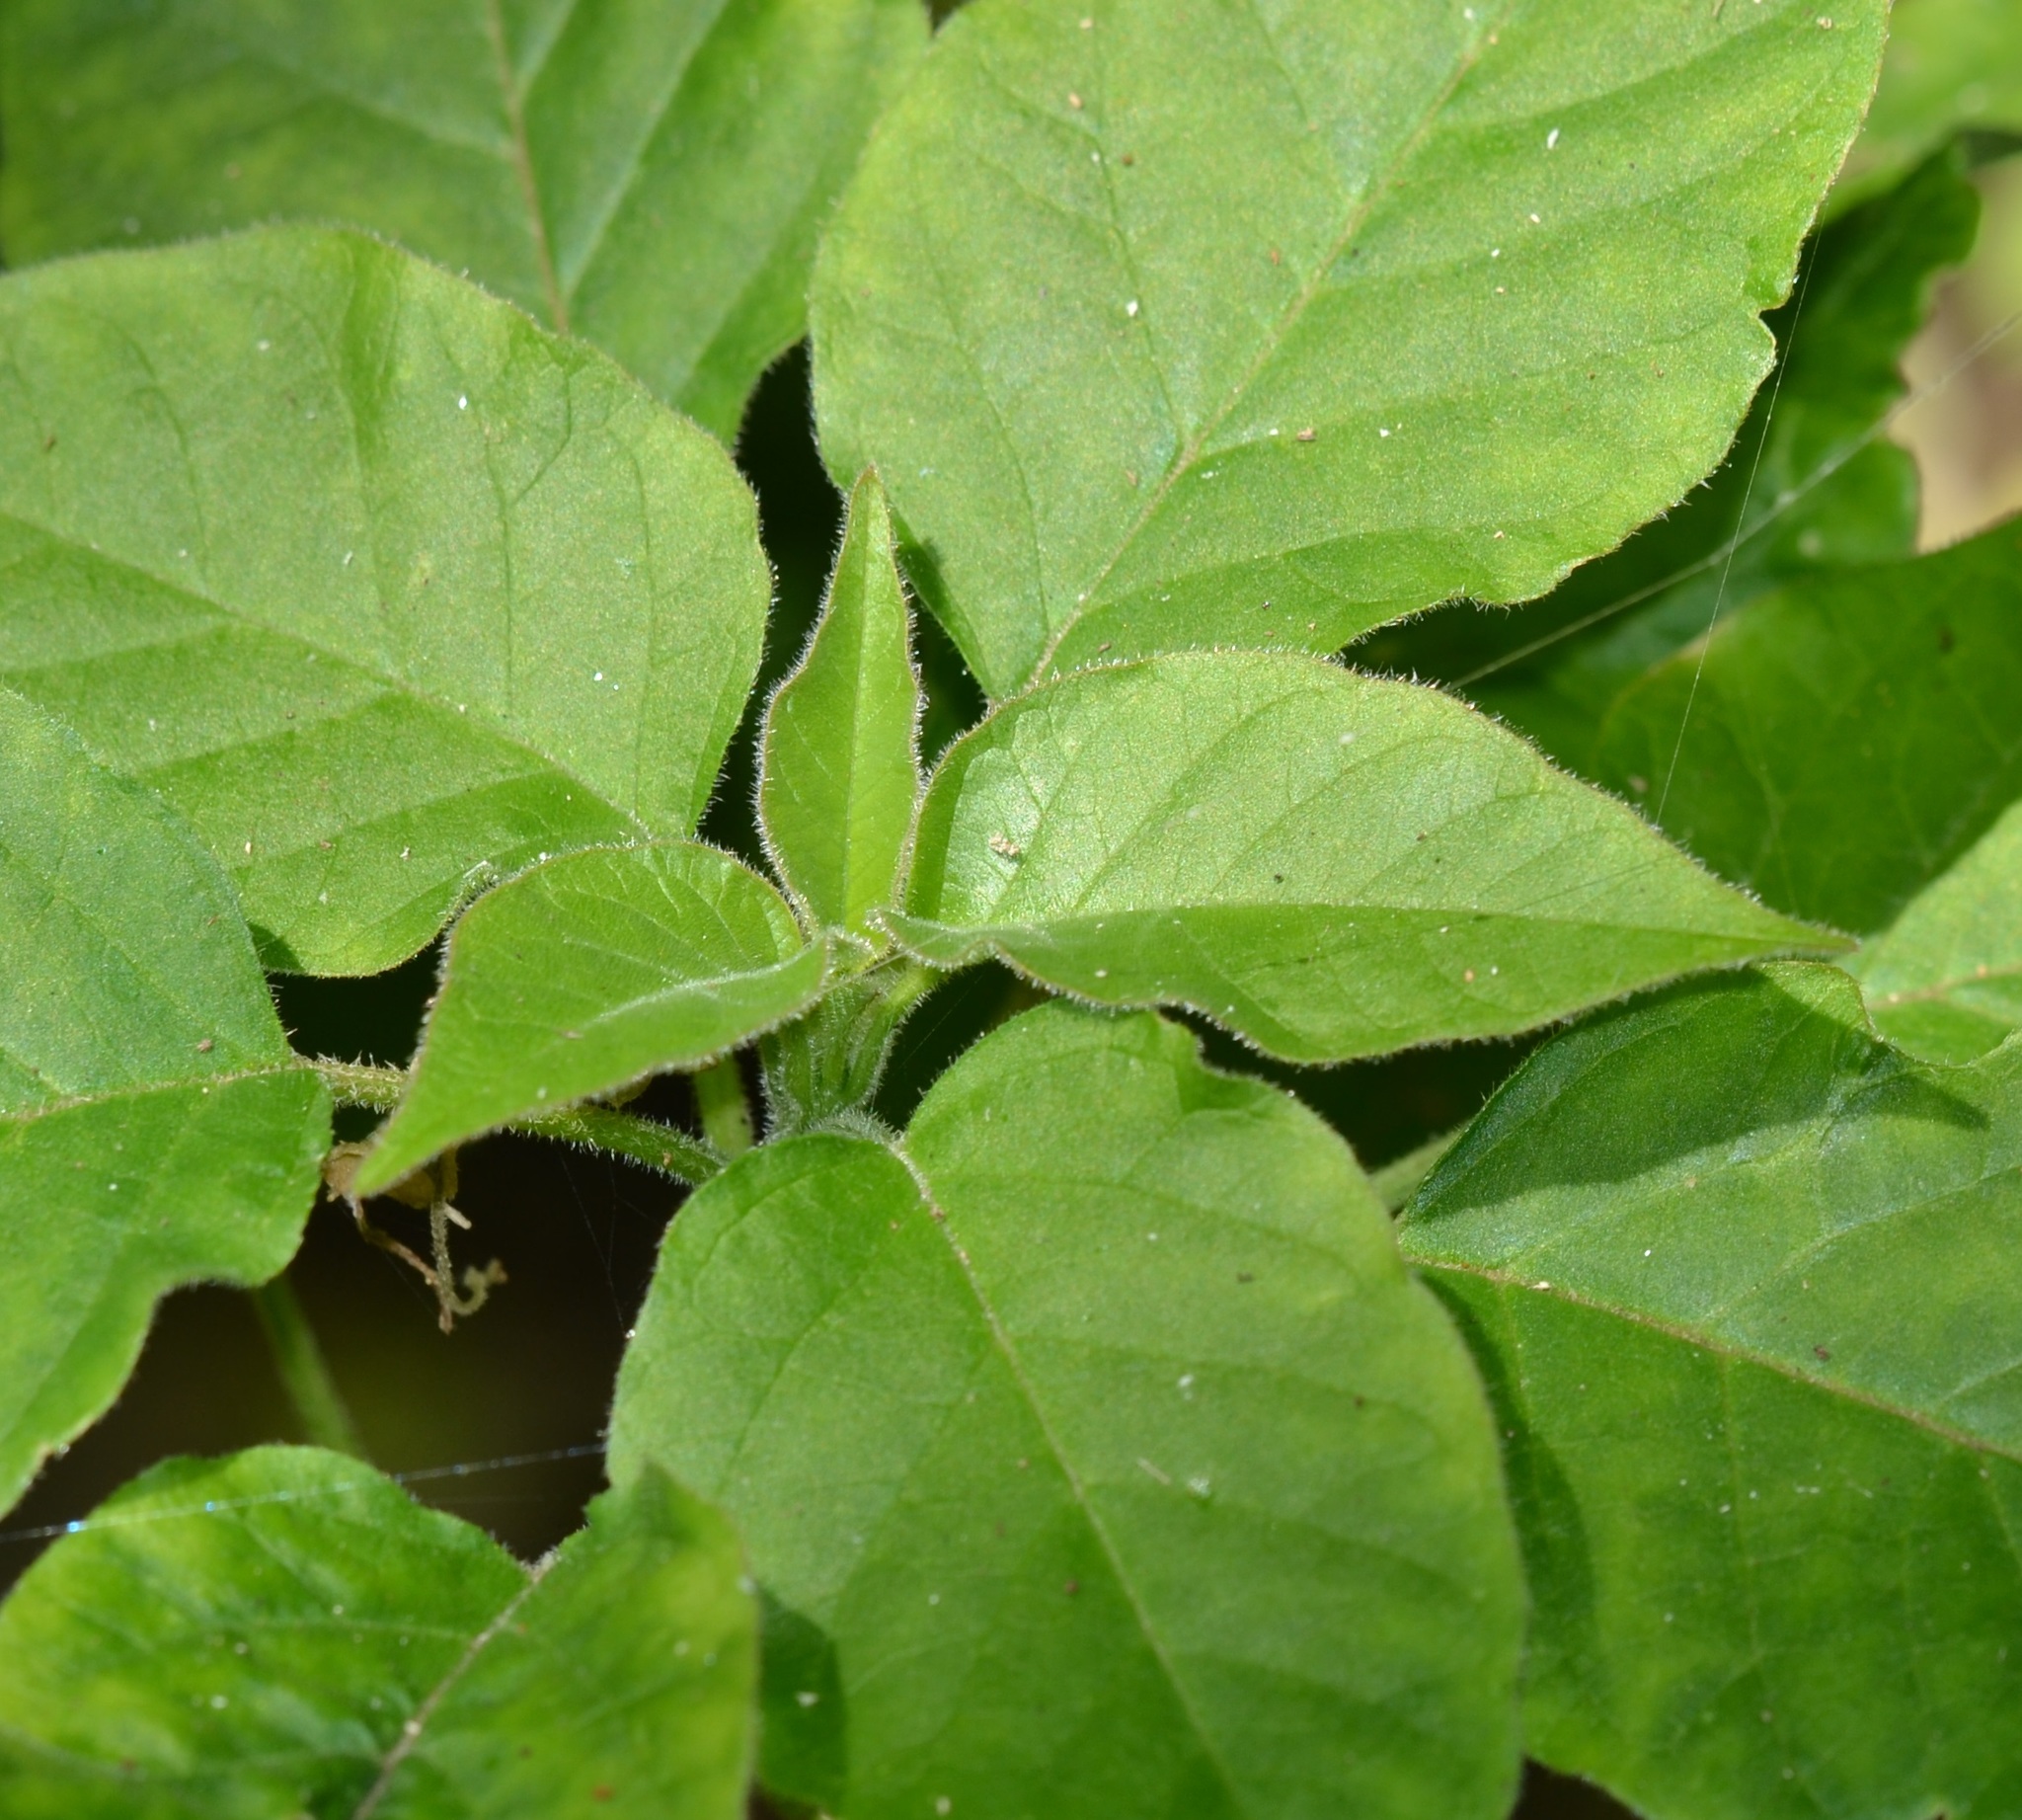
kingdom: Plantae
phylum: Tracheophyta
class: Magnoliopsida
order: Caryophyllales
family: Phytolaccaceae
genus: Rivina
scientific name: Rivina humilis
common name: Rougeplant
